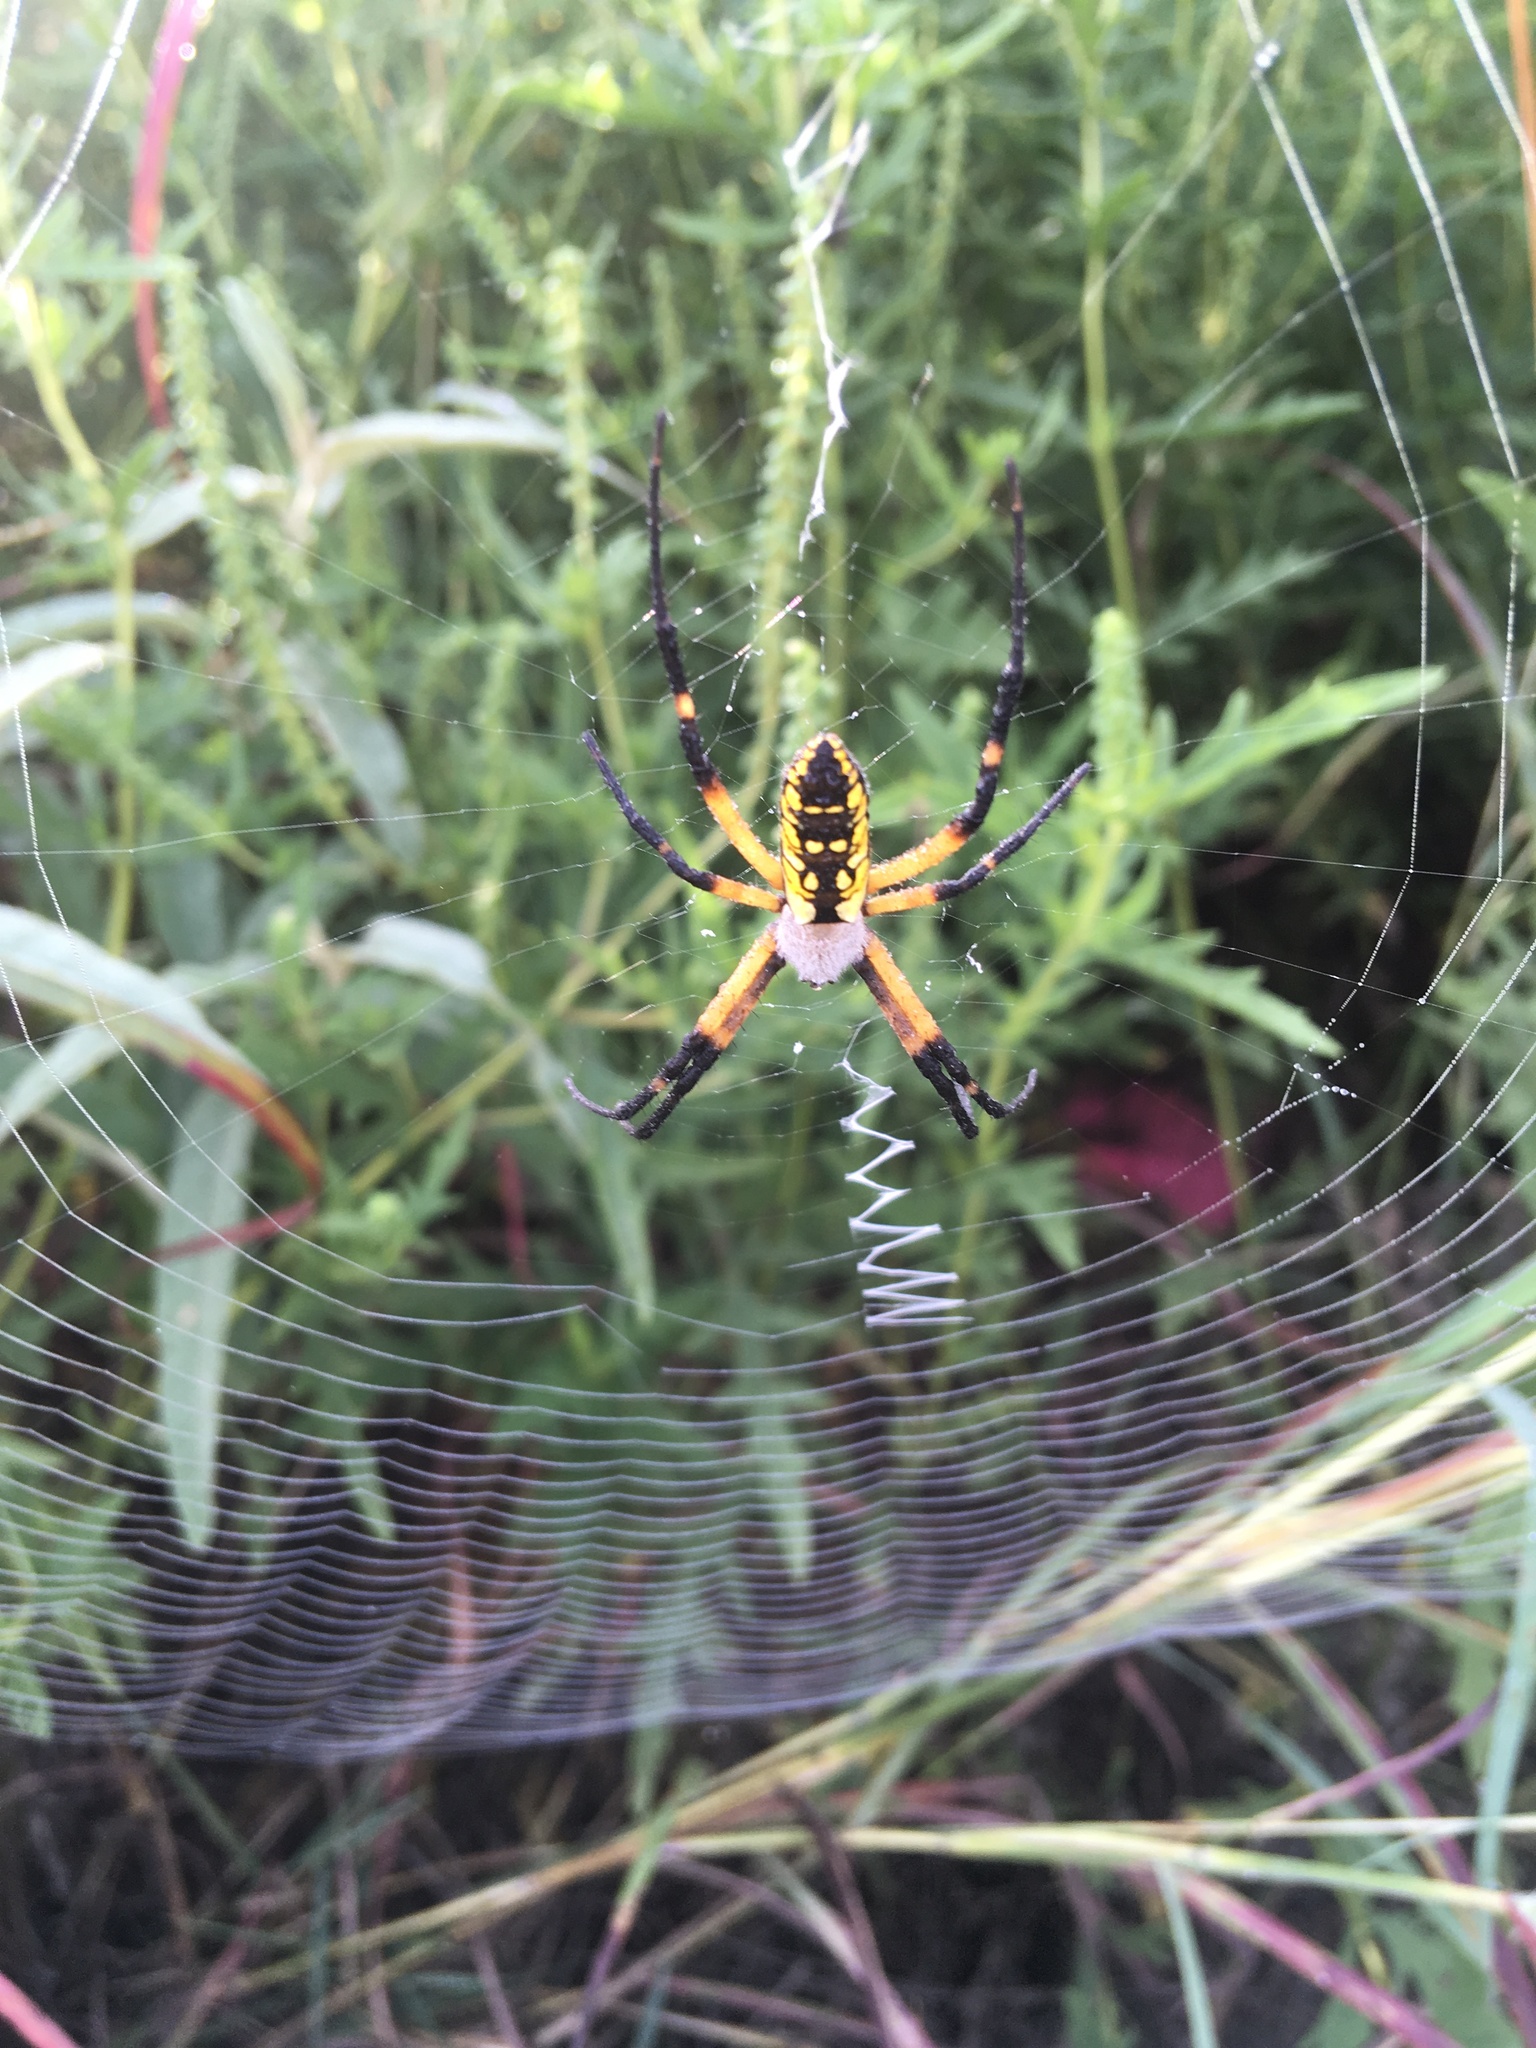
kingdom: Animalia
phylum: Arthropoda
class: Arachnida
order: Araneae
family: Araneidae
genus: Argiope
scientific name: Argiope aurantia
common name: Orb weavers
